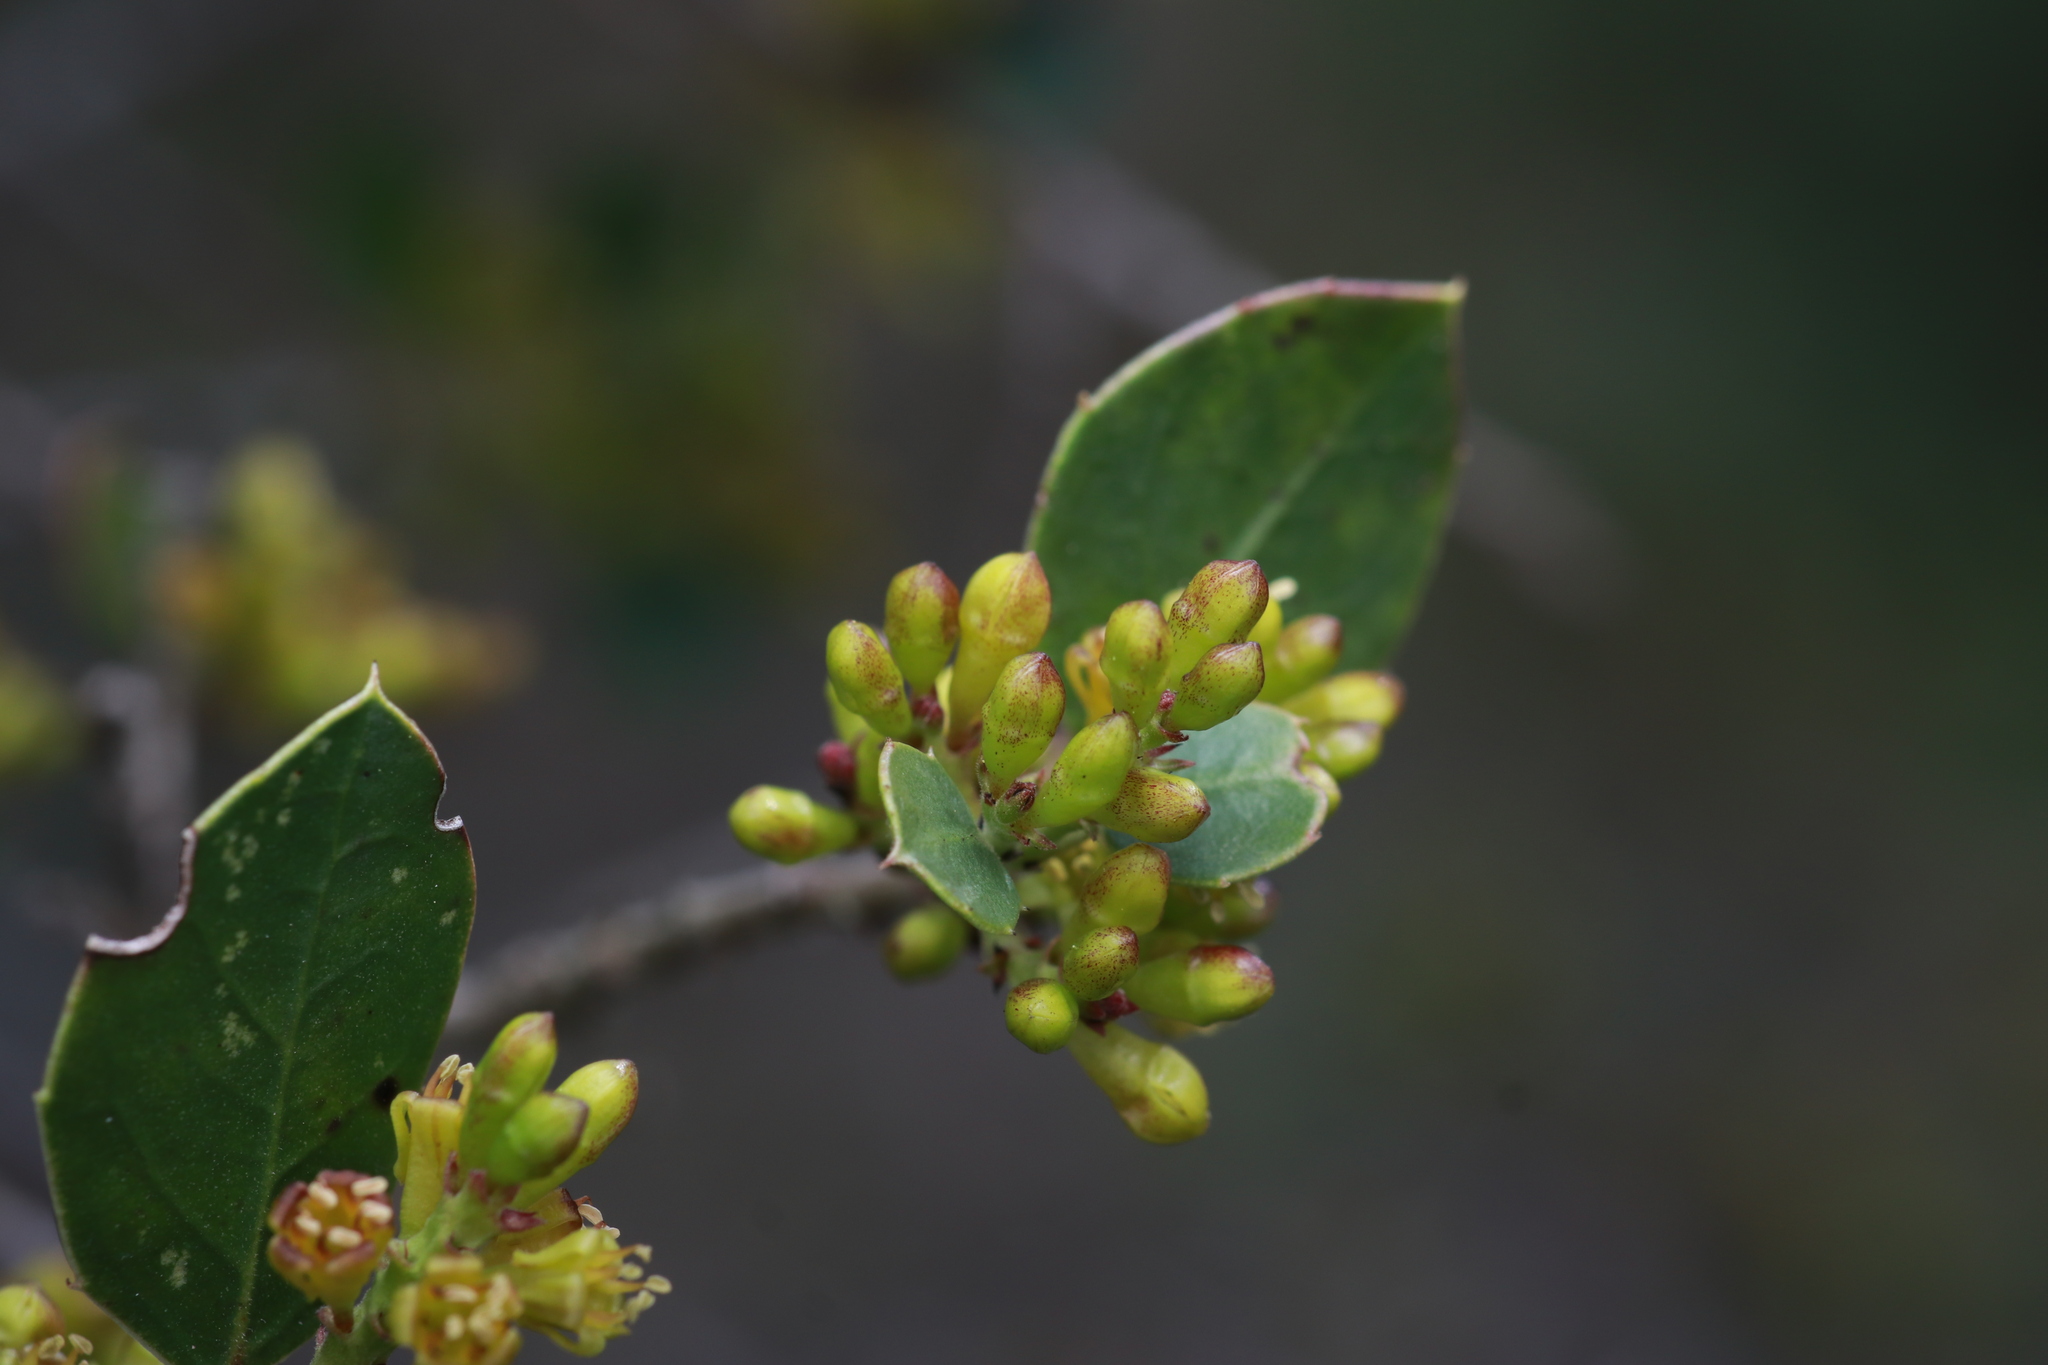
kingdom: Plantae
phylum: Tracheophyta
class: Magnoliopsida
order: Rosales
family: Rhamnaceae
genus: Rhamnus
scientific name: Rhamnus alaternus
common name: Mediterranean buckthorn
